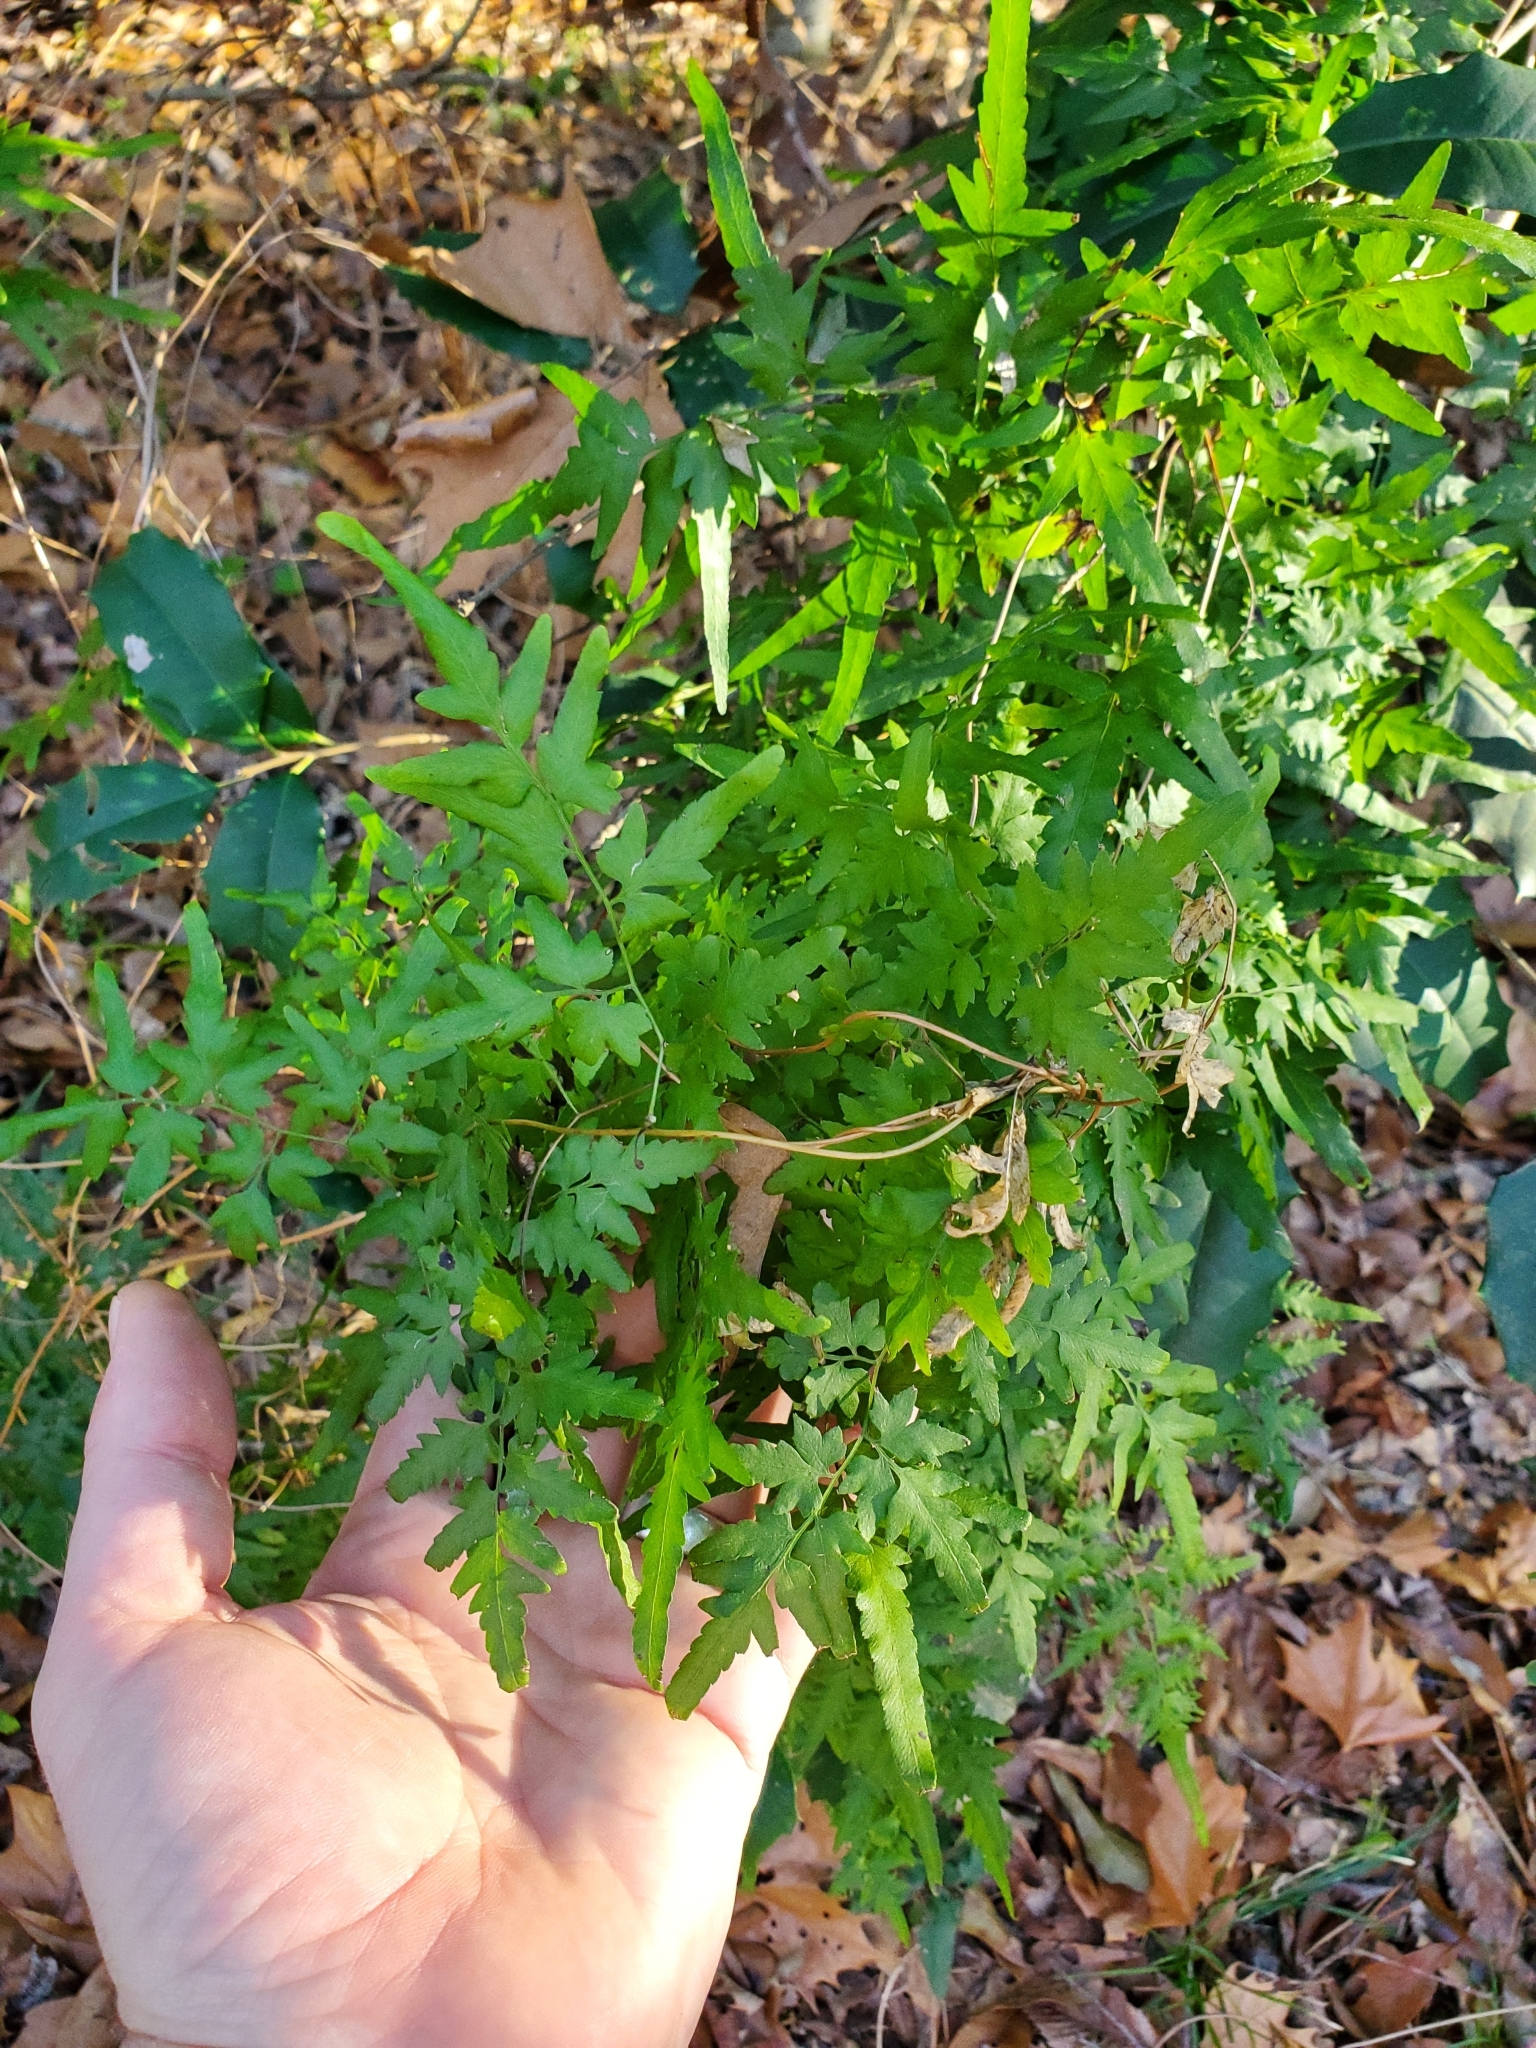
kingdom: Plantae
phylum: Tracheophyta
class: Polypodiopsida
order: Schizaeales
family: Lygodiaceae
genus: Lygodium
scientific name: Lygodium japonicum
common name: Japanese climbing fern
